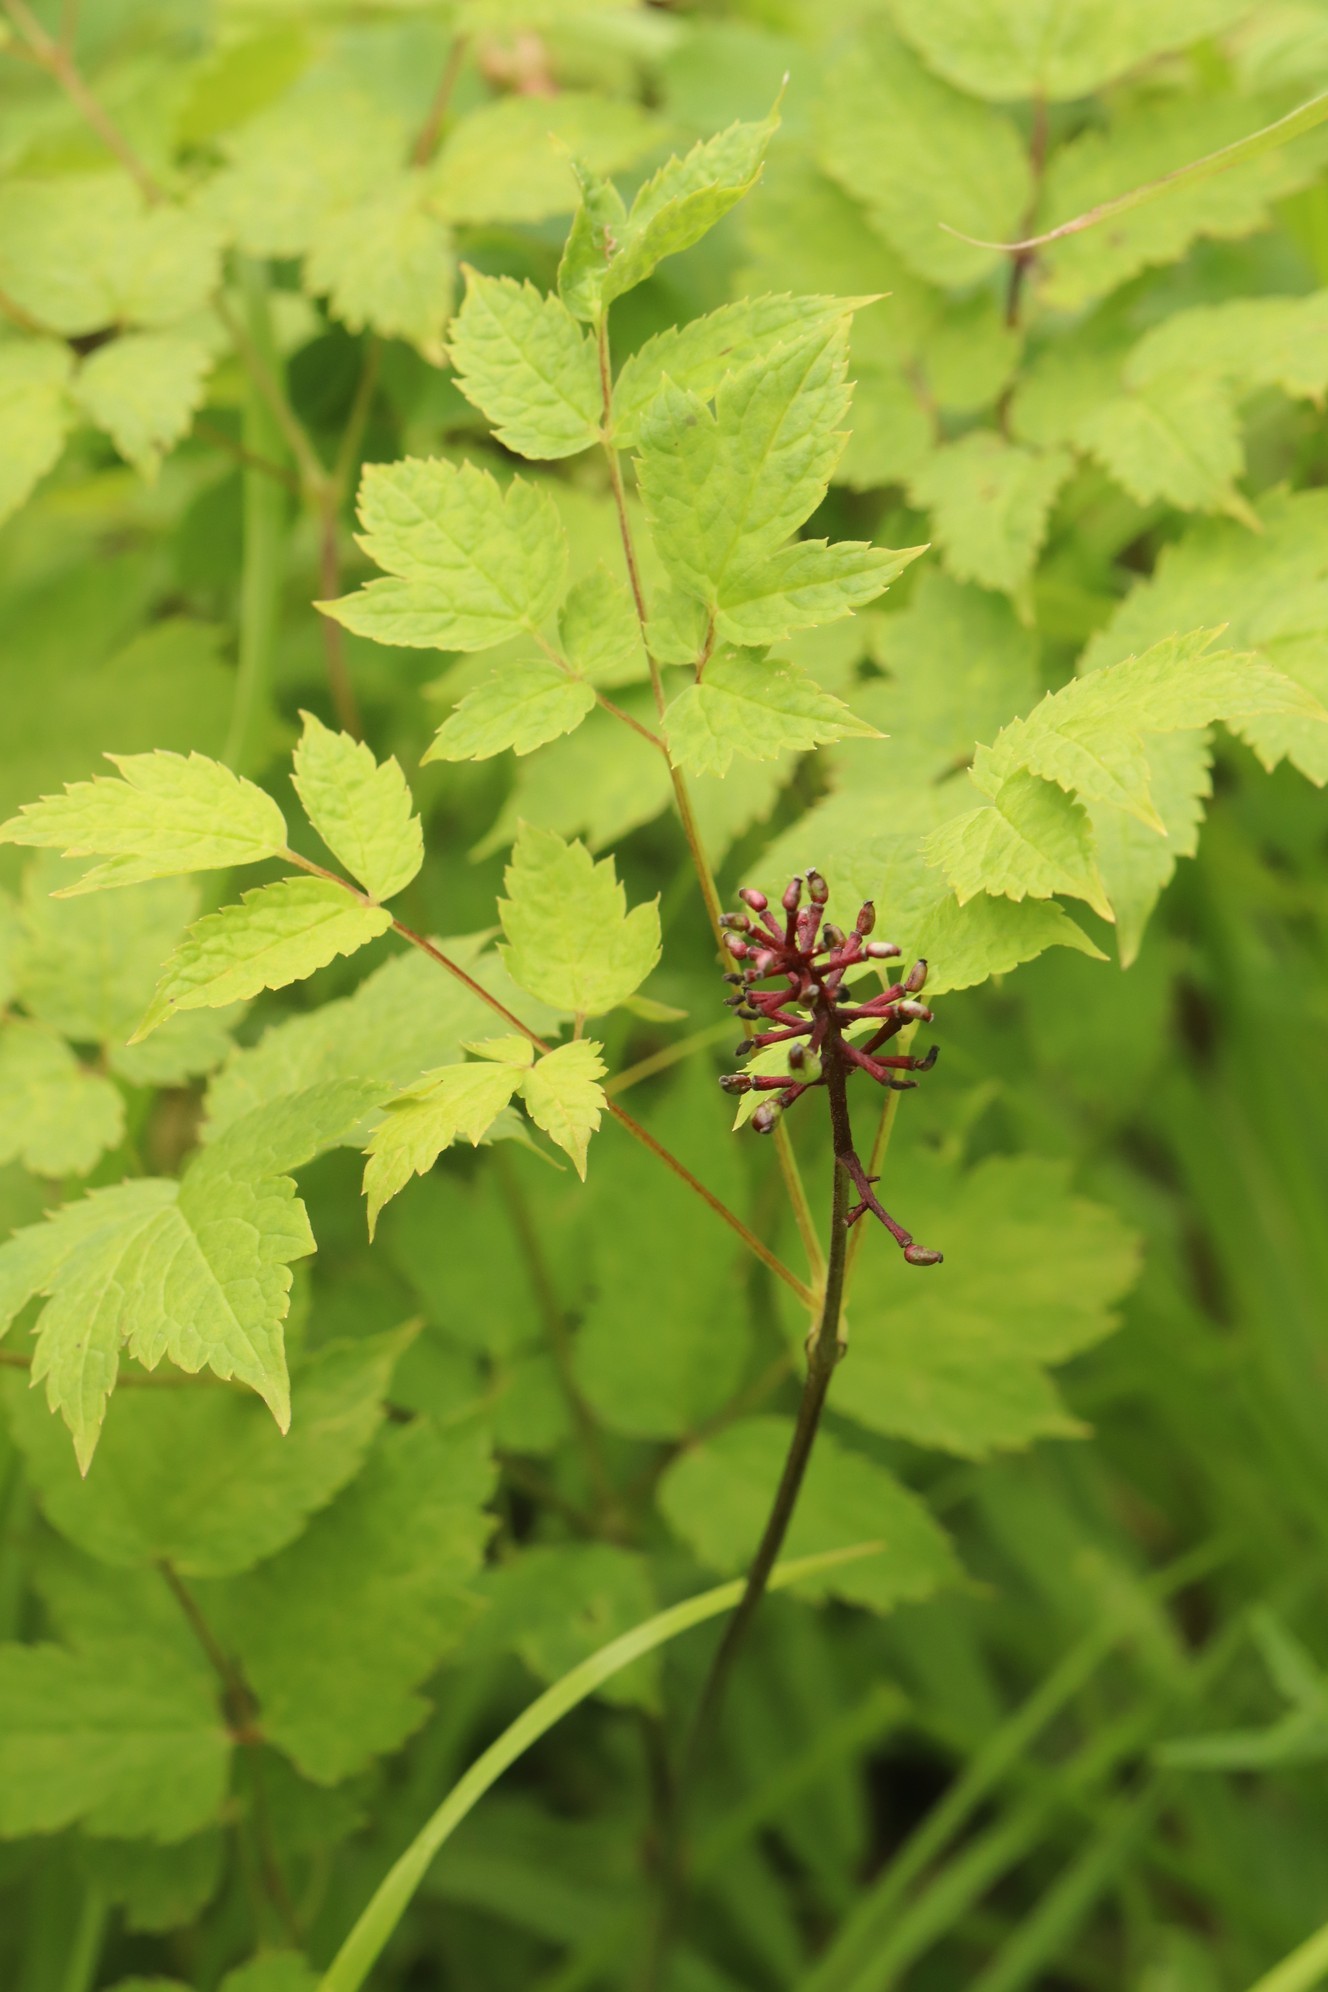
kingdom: Plantae
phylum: Tracheophyta
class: Magnoliopsida
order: Ranunculales
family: Ranunculaceae
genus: Actaea
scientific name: Actaea erythrocarpa
